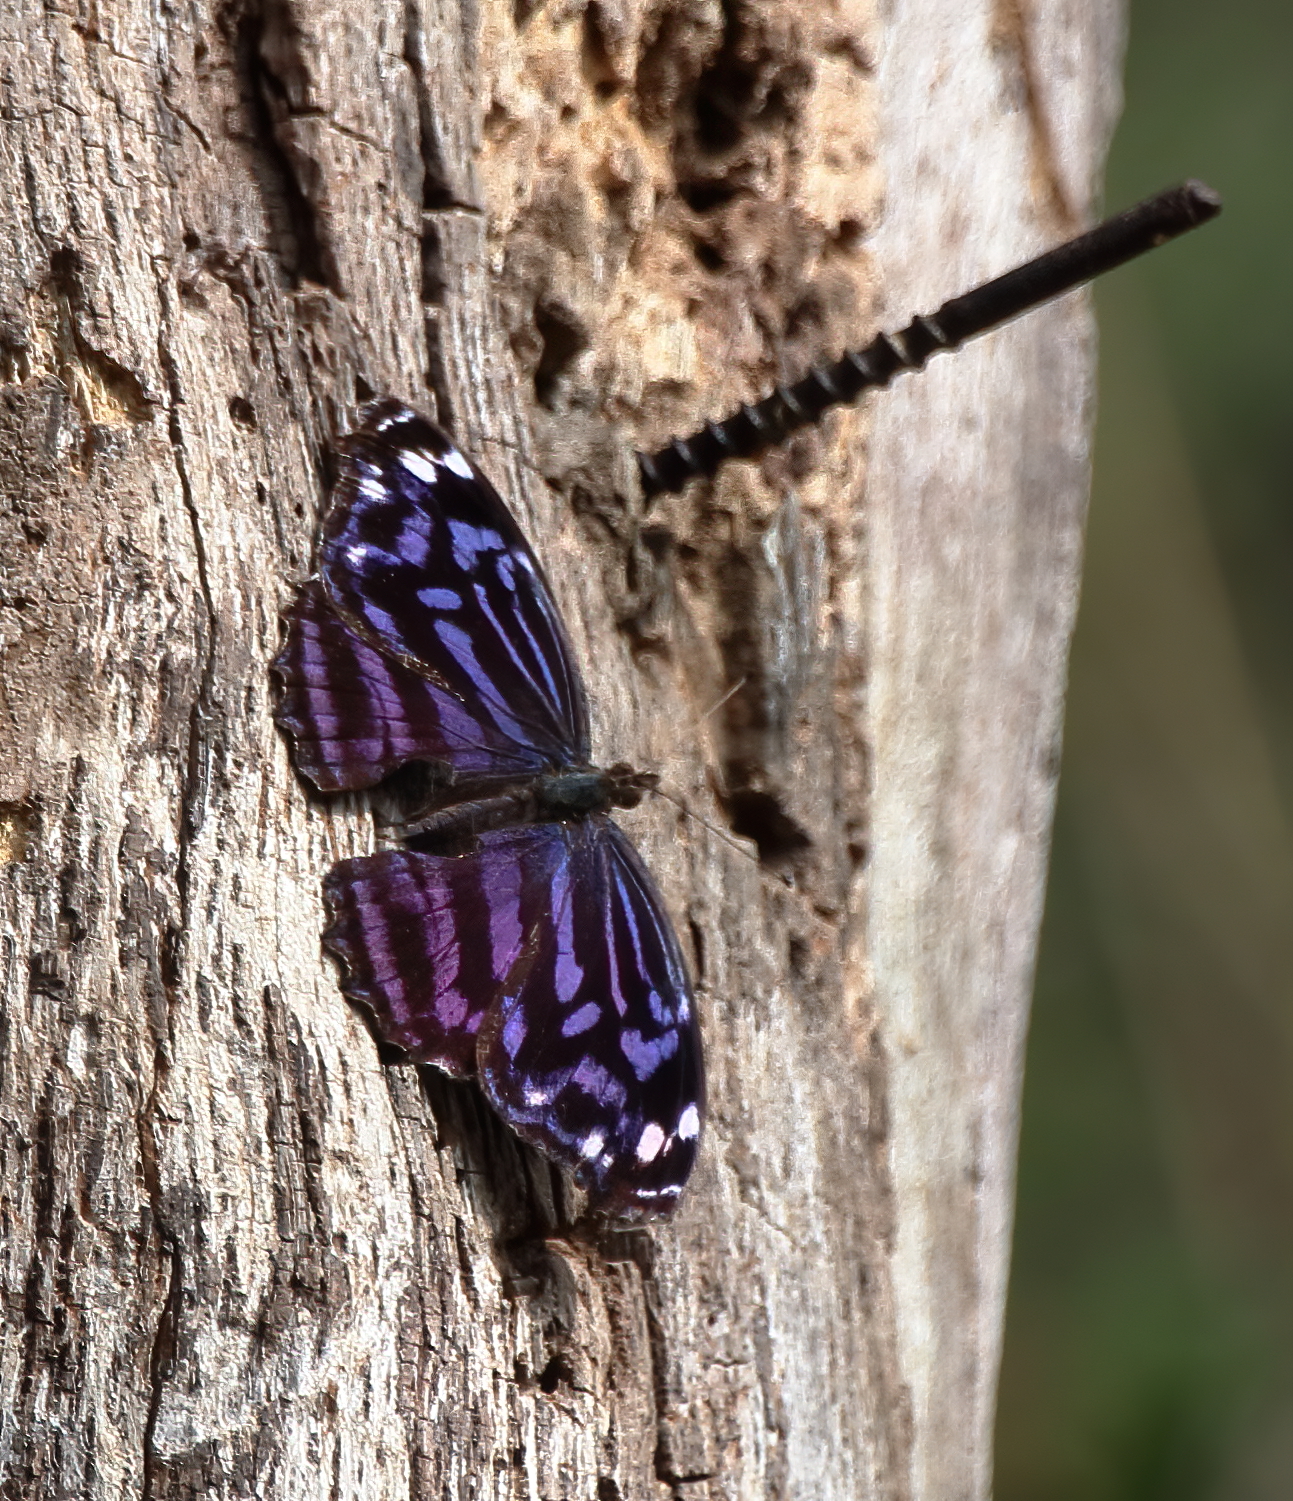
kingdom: Animalia
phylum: Arthropoda
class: Insecta
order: Lepidoptera
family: Nymphalidae
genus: Myscelia
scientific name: Myscelia ethusa
